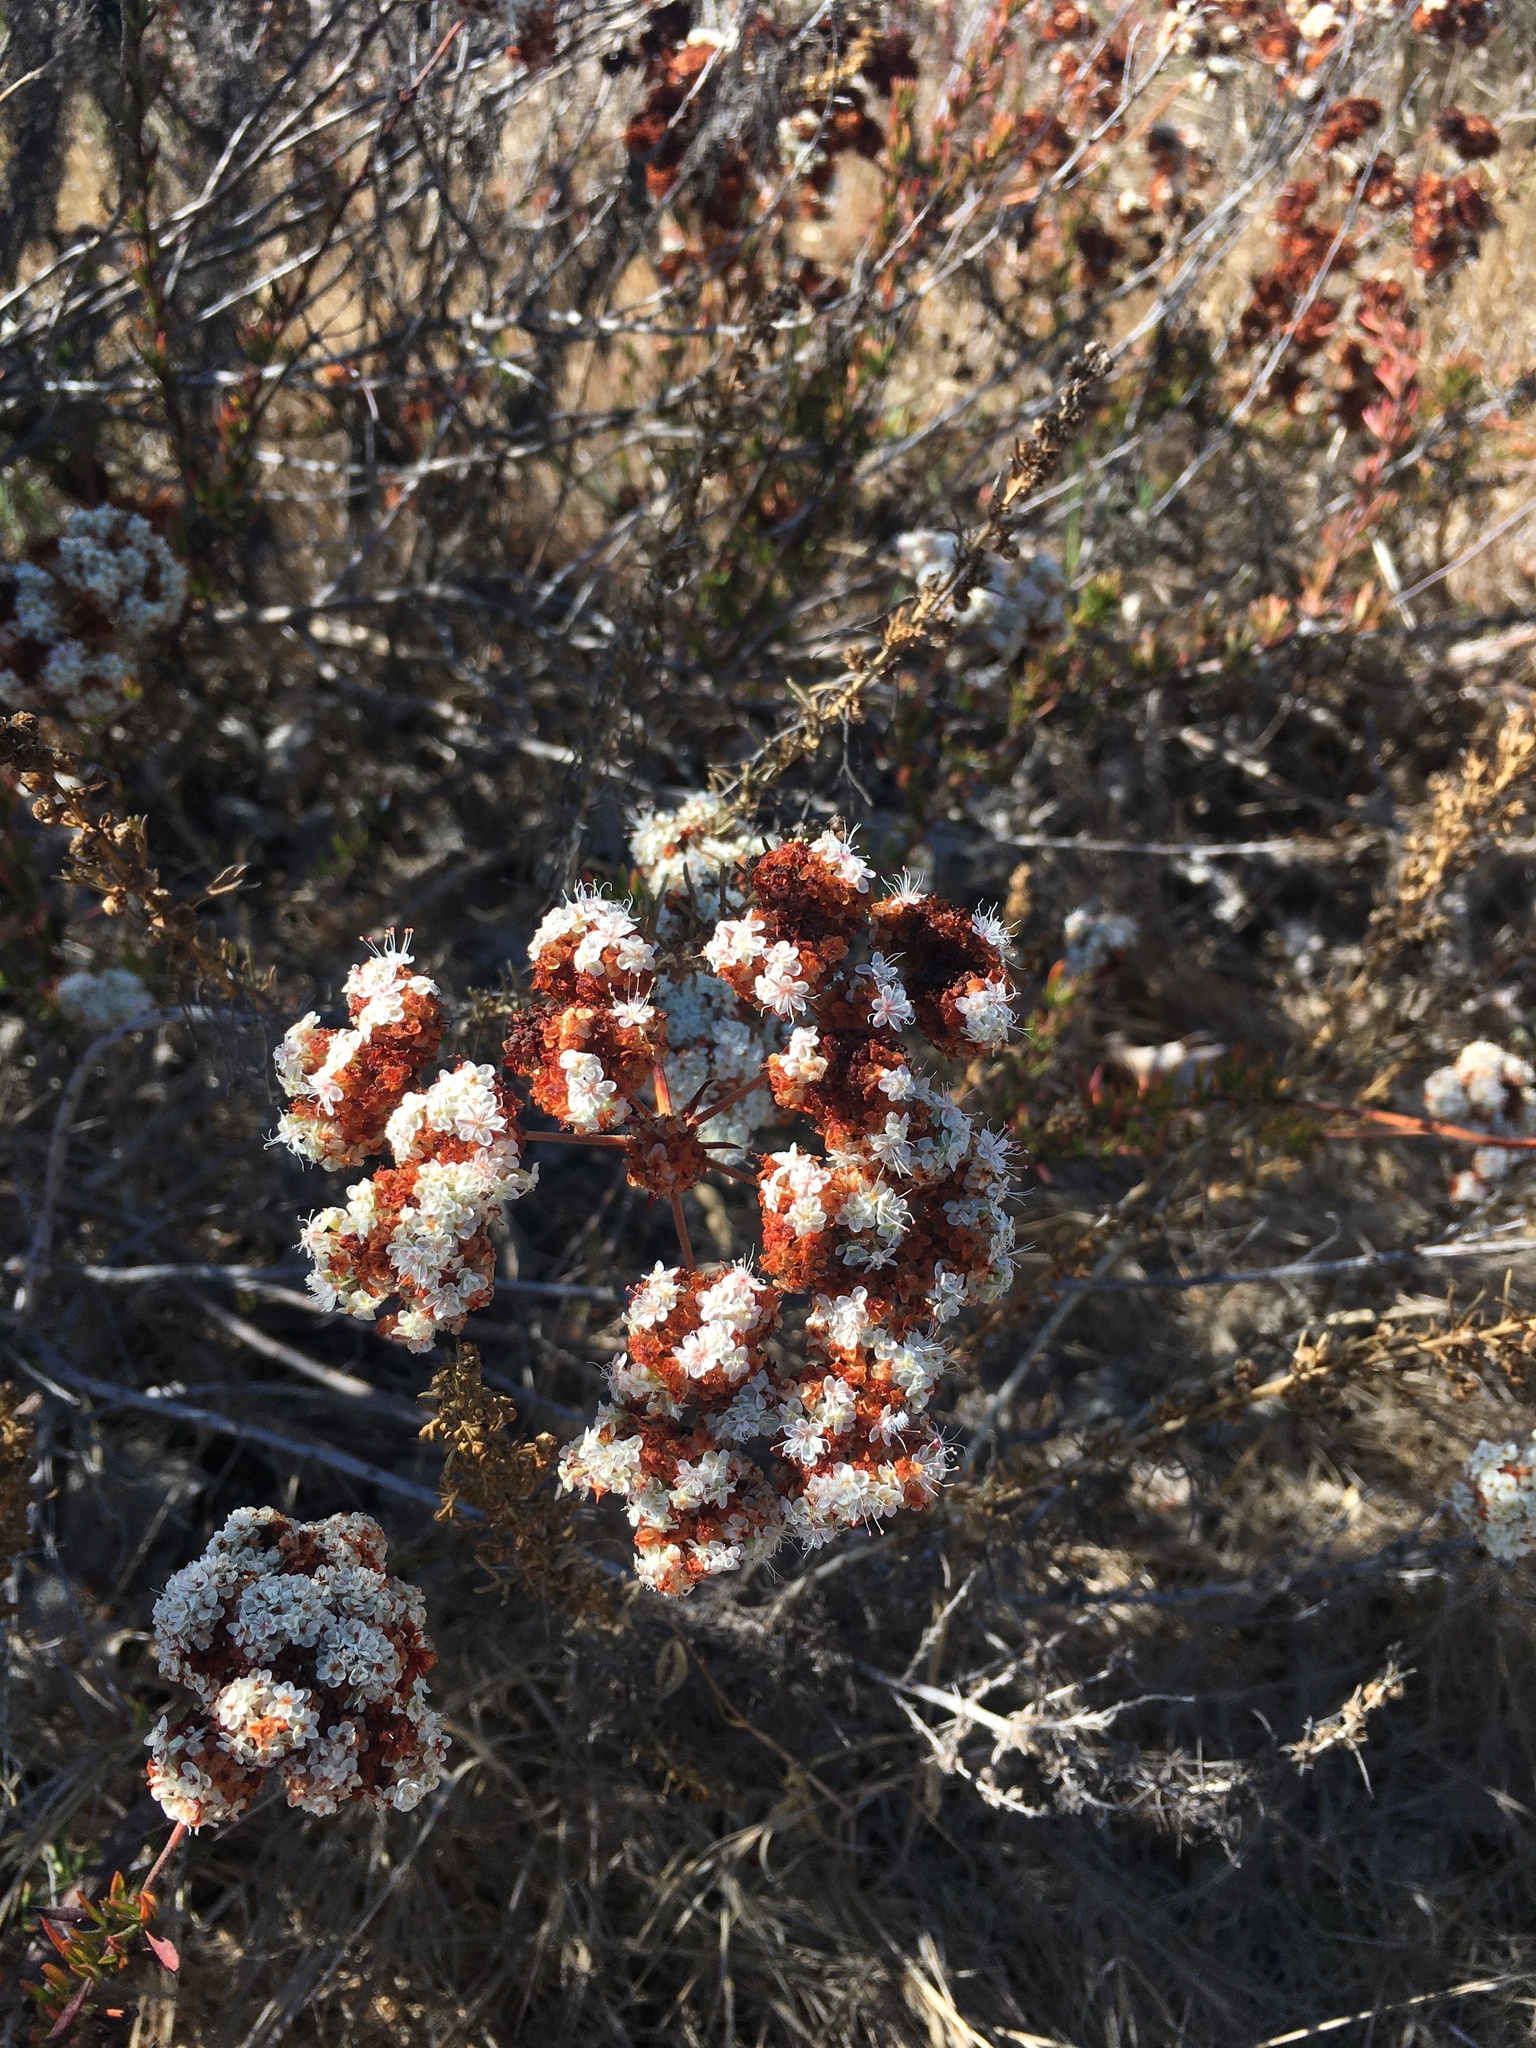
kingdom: Plantae
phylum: Tracheophyta
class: Magnoliopsida
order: Caryophyllales
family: Polygonaceae
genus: Eriogonum
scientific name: Eriogonum fasciculatum
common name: California wild buckwheat
